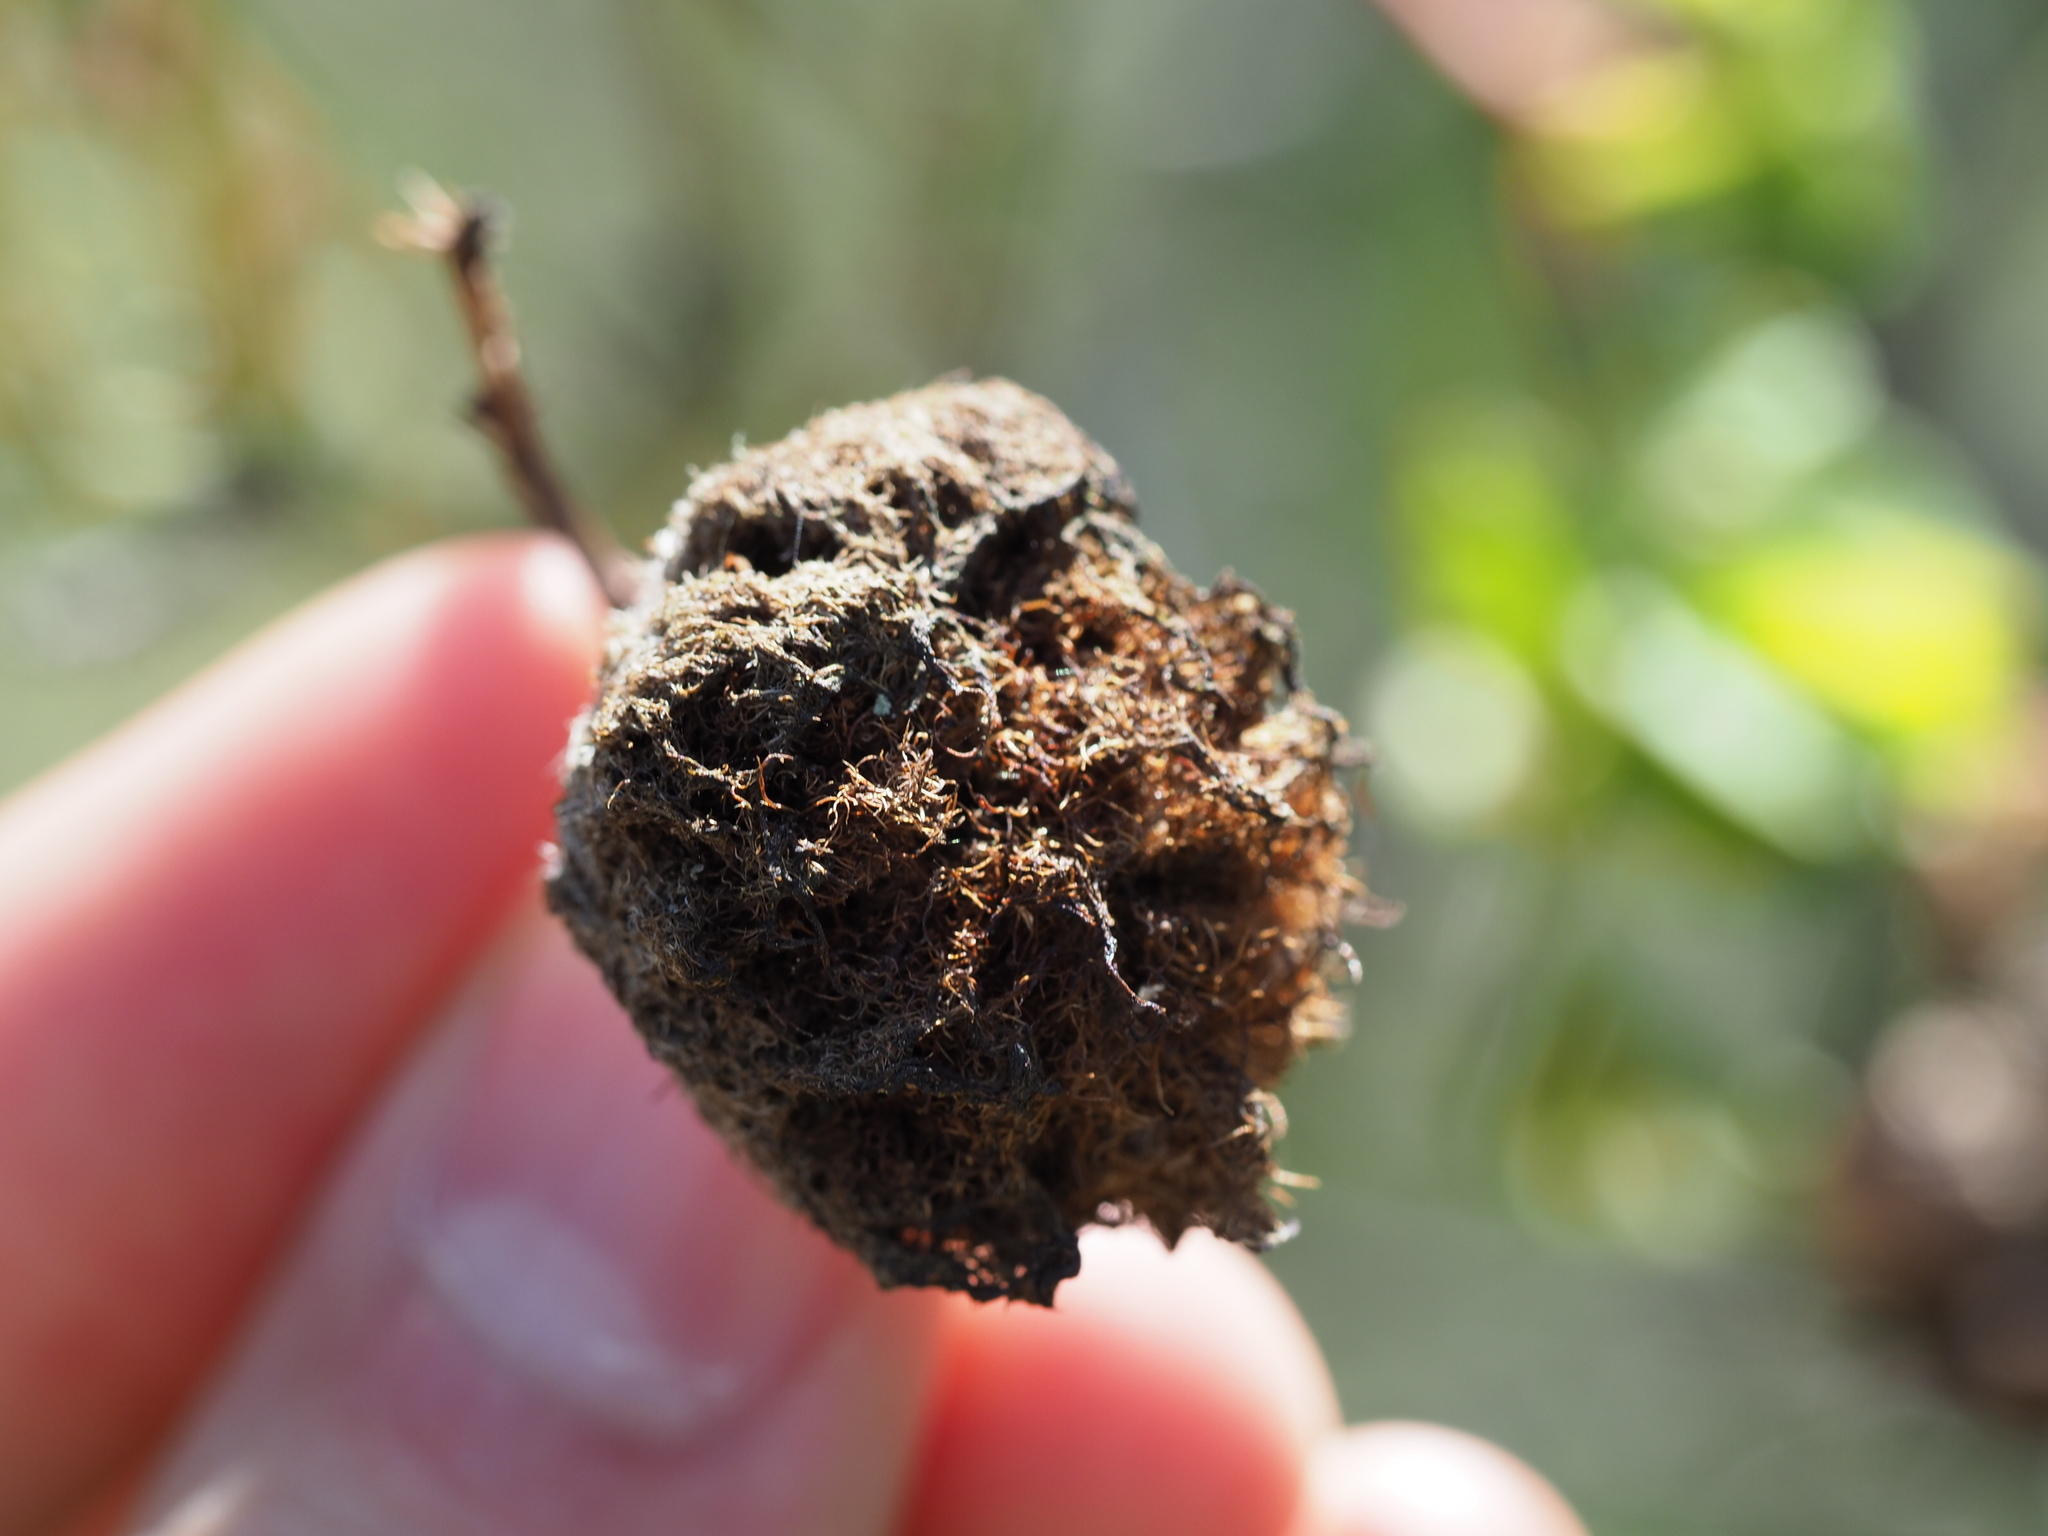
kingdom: Animalia
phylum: Arthropoda
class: Insecta
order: Hymenoptera
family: Cynipidae
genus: Diplolepis
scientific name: Diplolepis rosae
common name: Bedeguar gall
